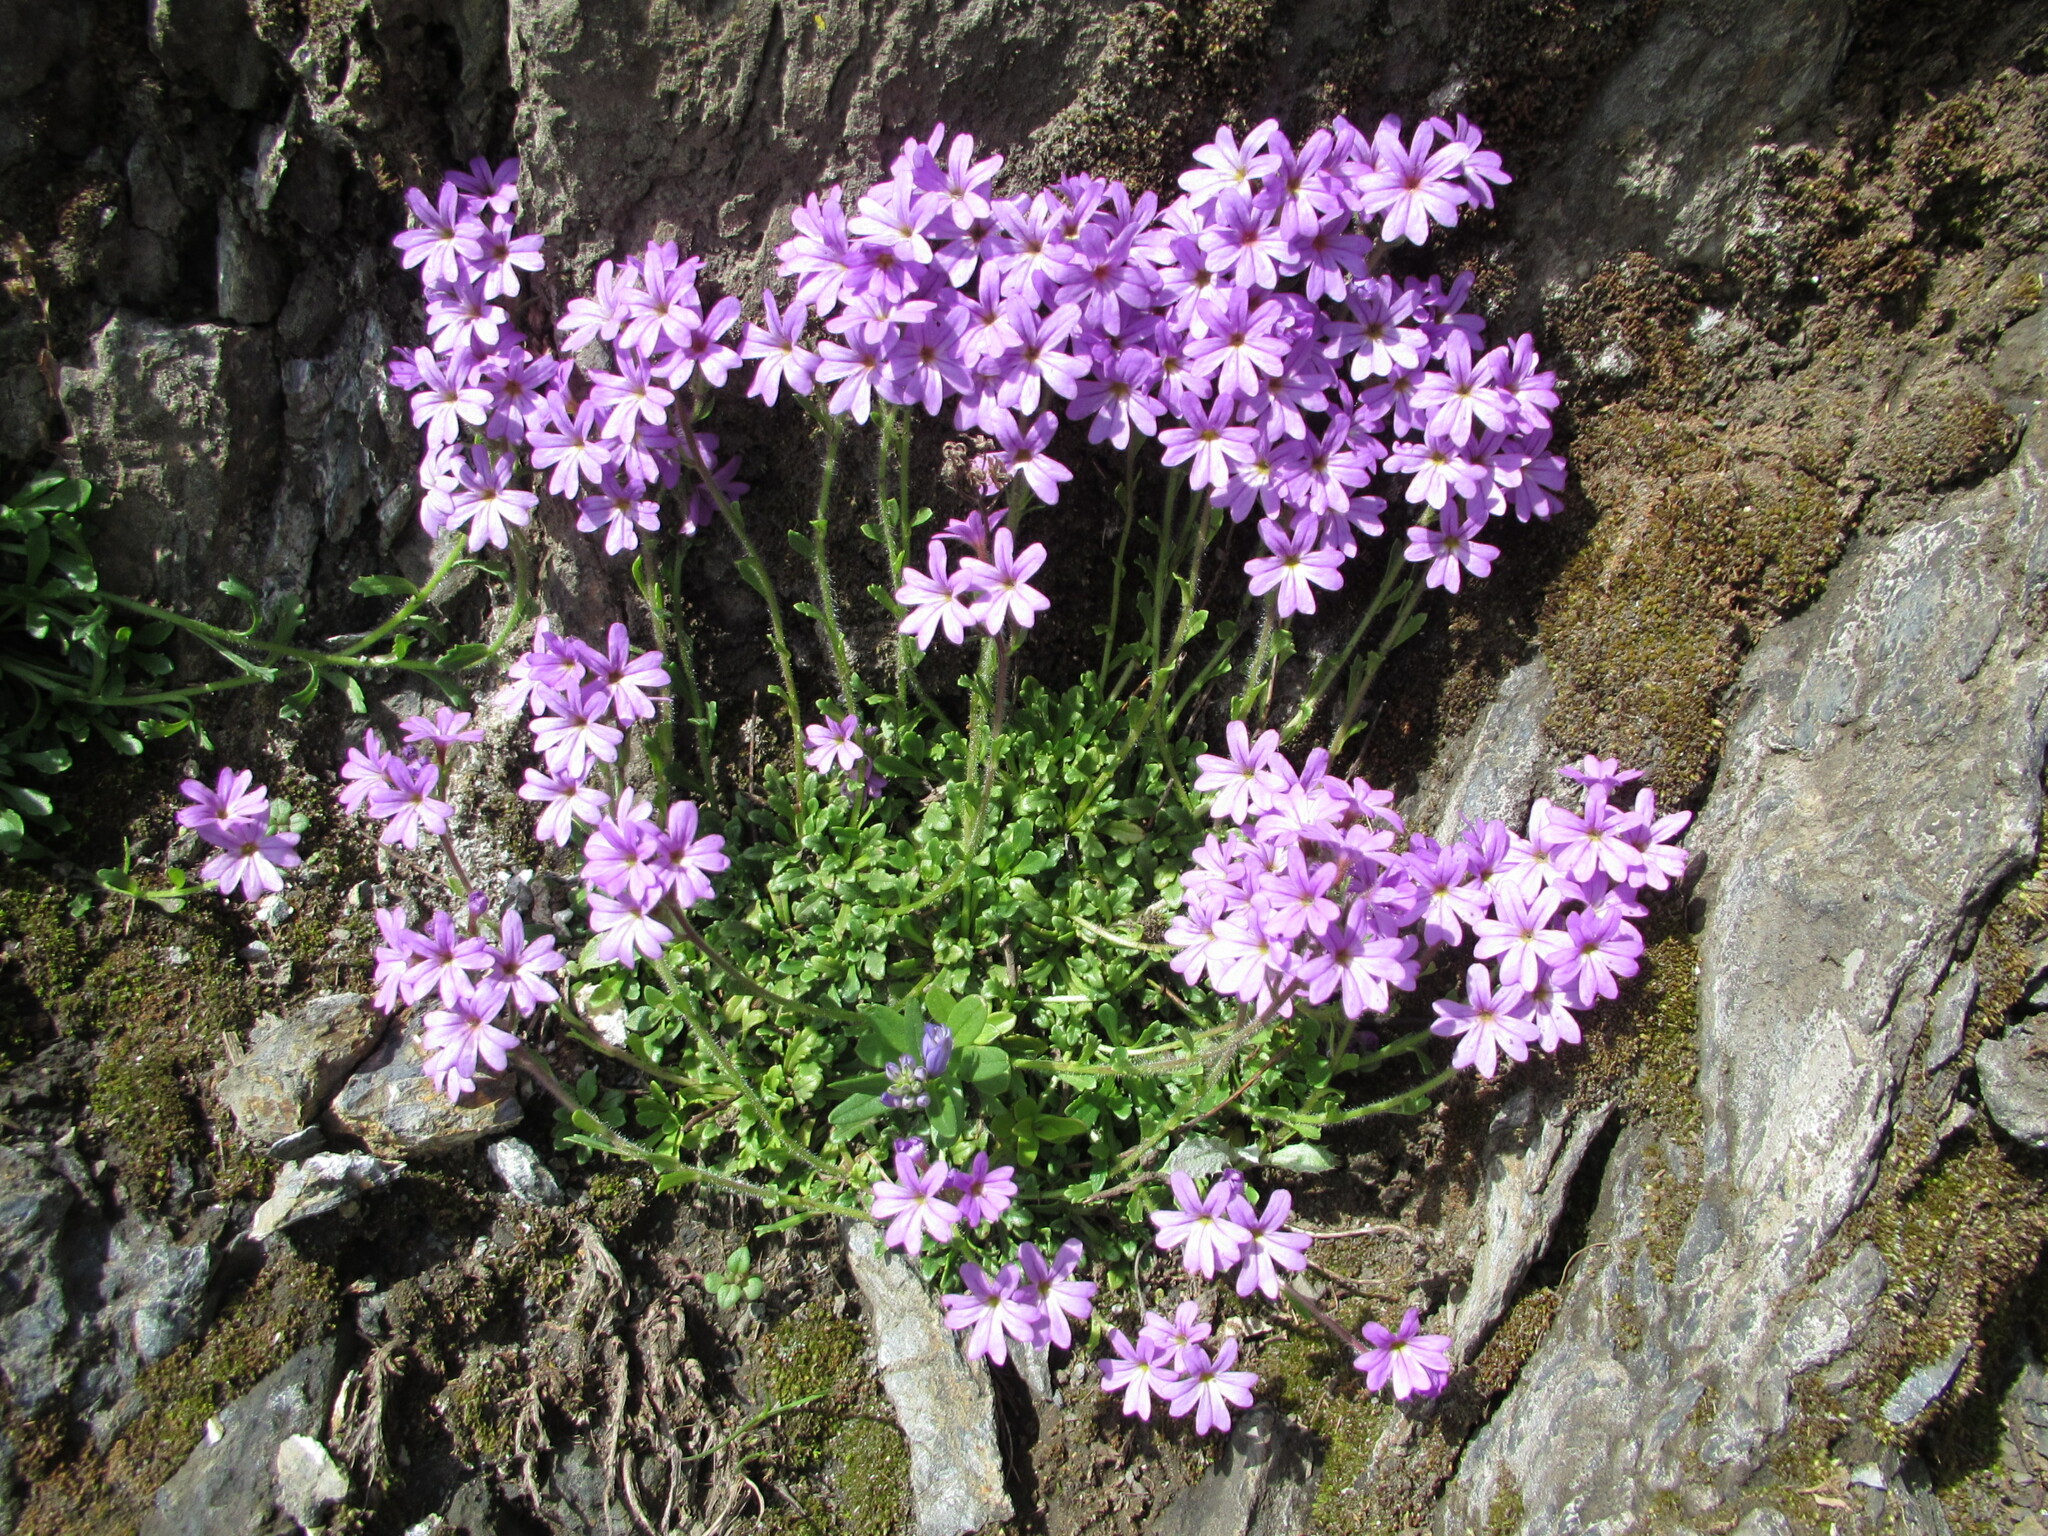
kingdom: Plantae
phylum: Tracheophyta
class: Magnoliopsida
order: Lamiales
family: Plantaginaceae
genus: Erinus
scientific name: Erinus alpinus
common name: Fairy foxglove
